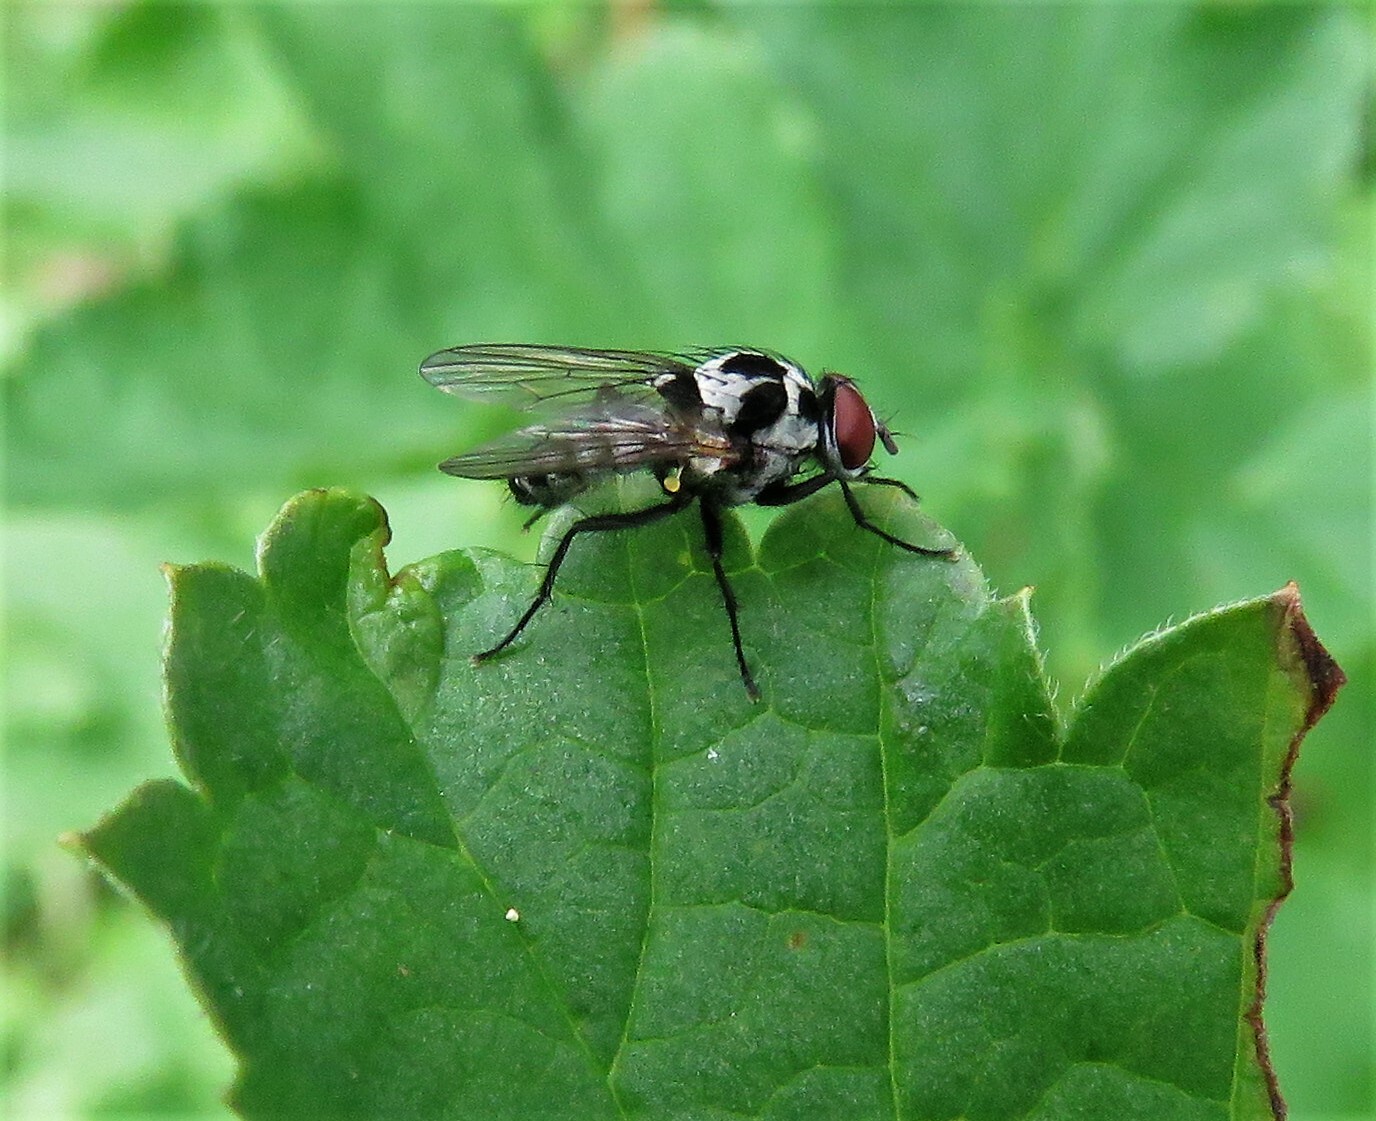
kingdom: Animalia
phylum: Arthropoda
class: Insecta
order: Diptera
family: Anthomyiidae
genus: Anthomyia
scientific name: Anthomyia procellaris
